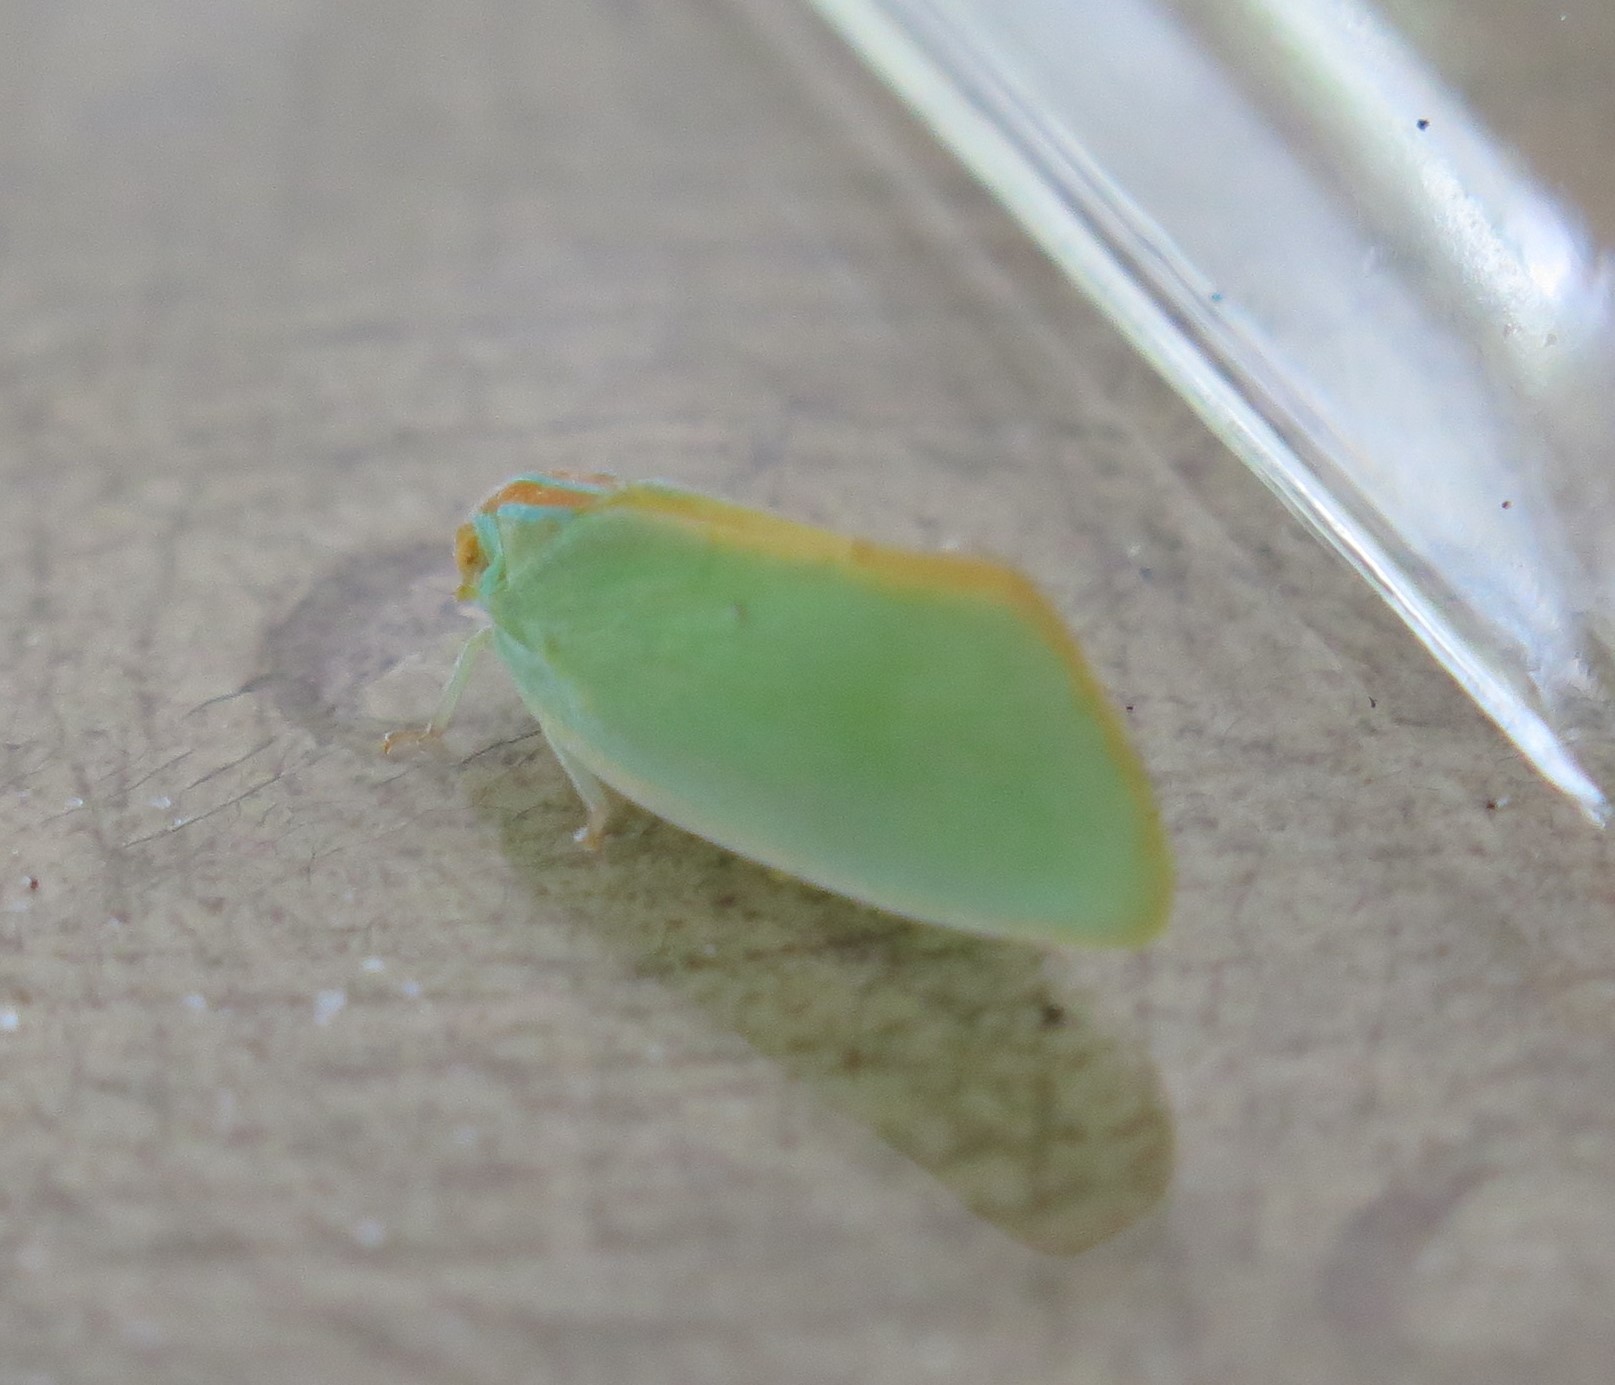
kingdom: Animalia
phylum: Arthropoda
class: Insecta
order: Hemiptera
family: Flatidae
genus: Ormenaria
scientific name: Ormenaria rufifascia
